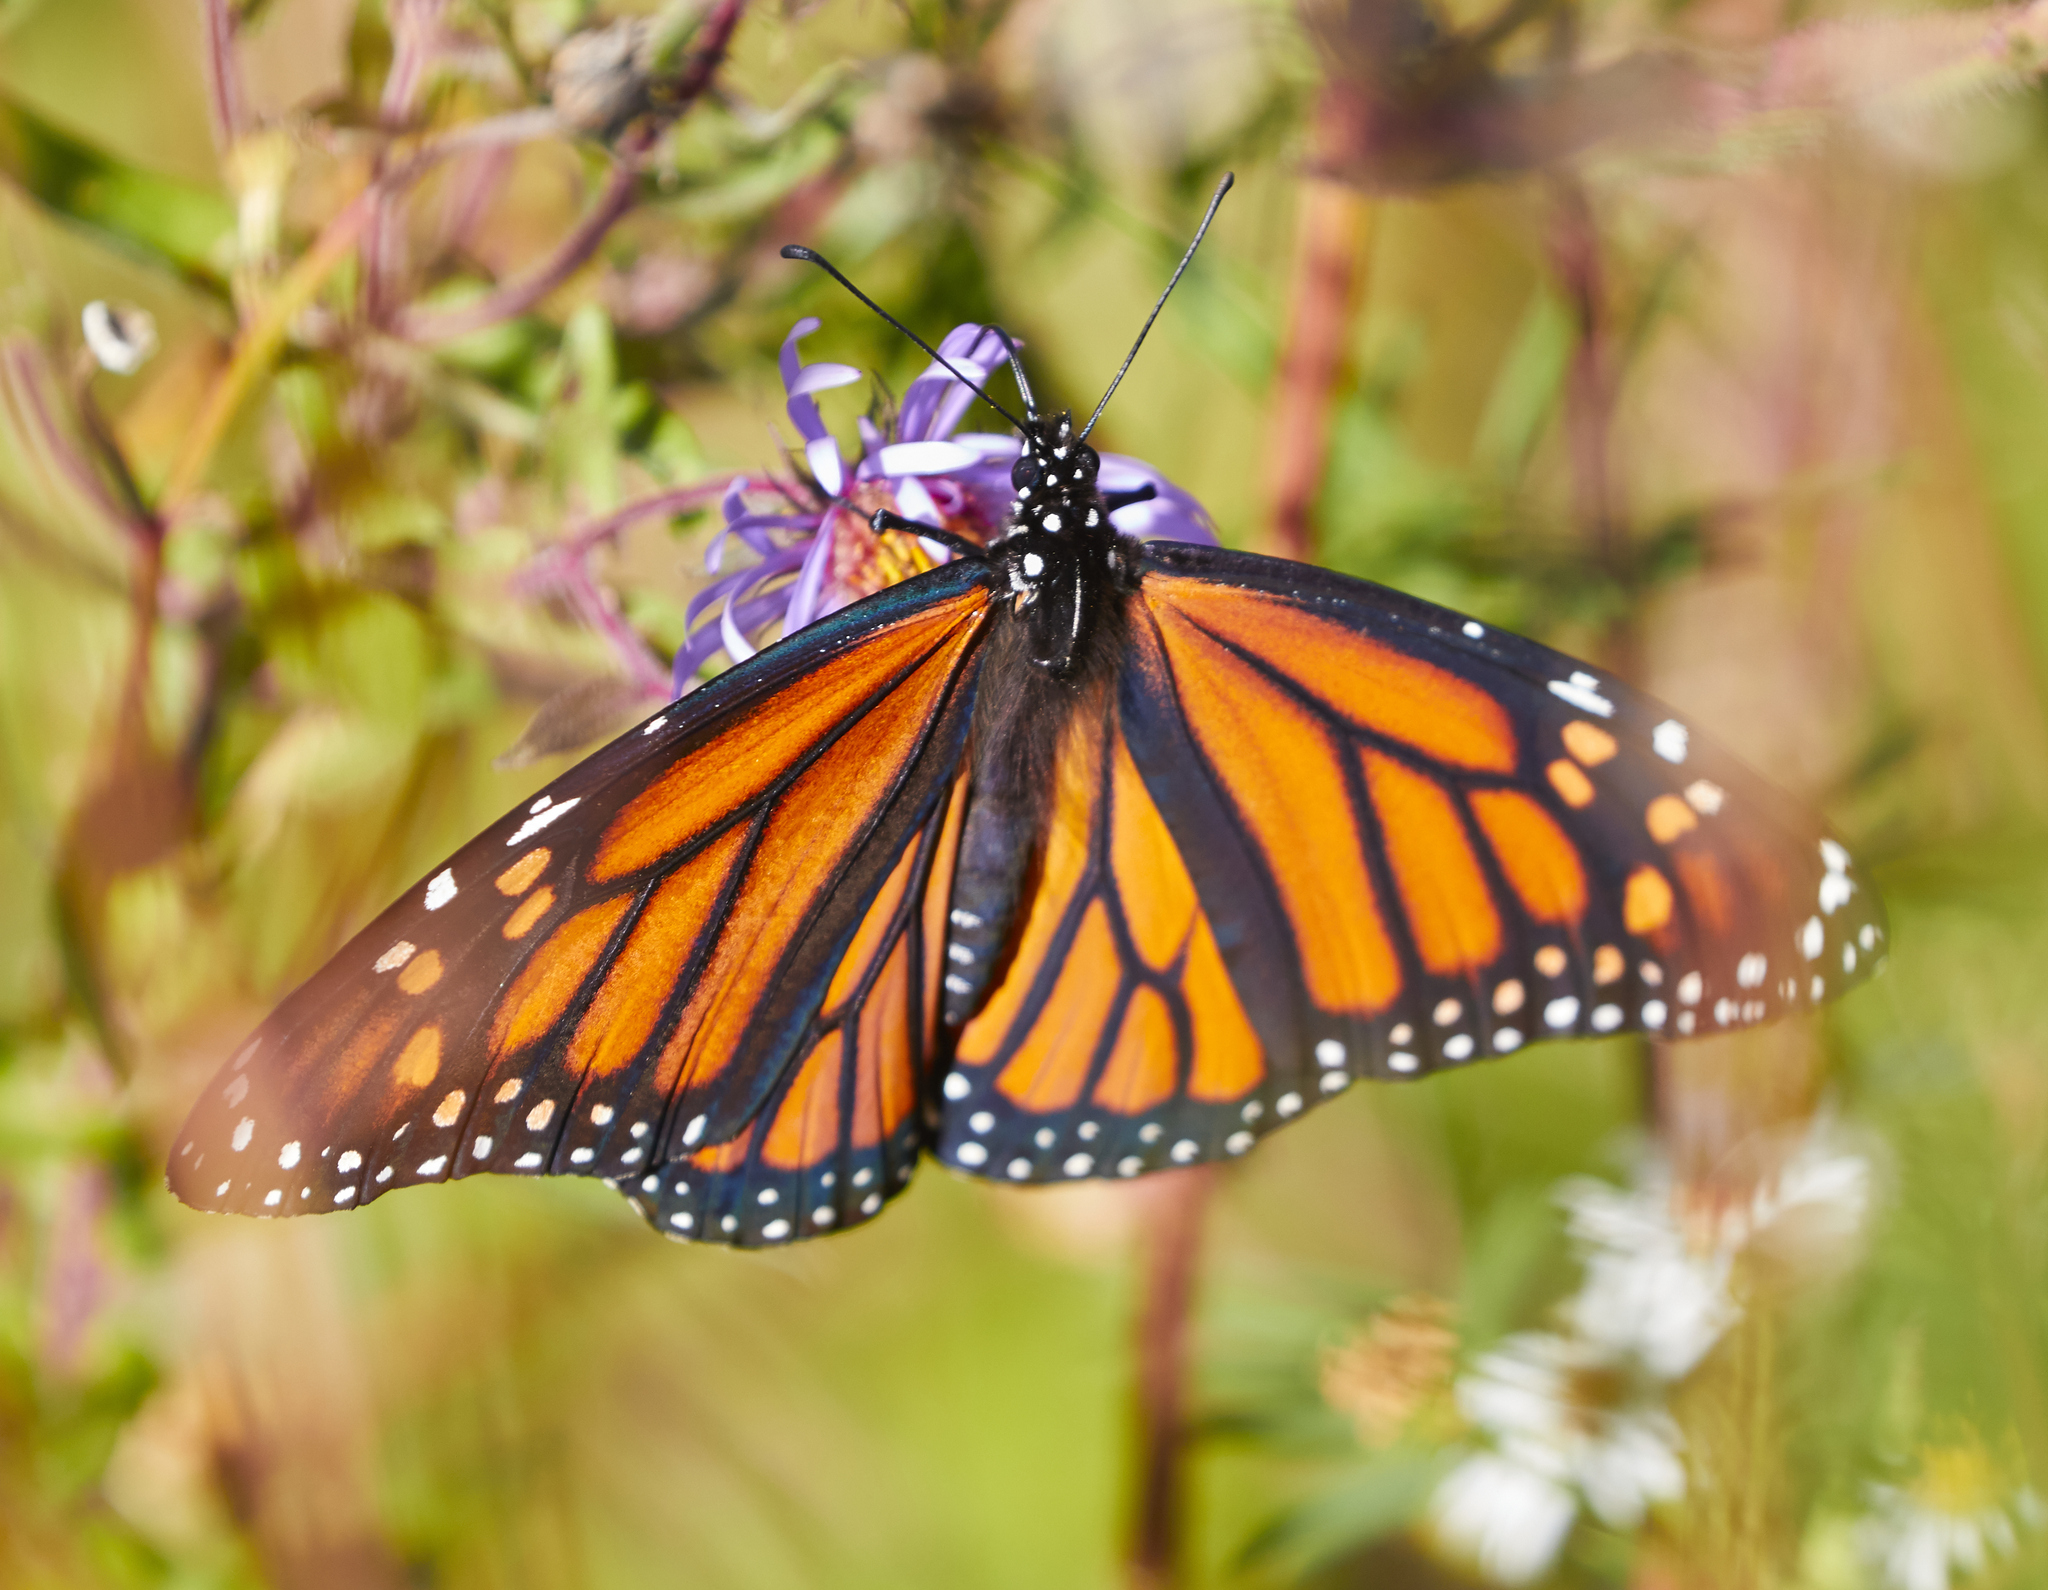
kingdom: Animalia
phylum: Arthropoda
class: Insecta
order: Lepidoptera
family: Nymphalidae
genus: Danaus
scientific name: Danaus plexippus
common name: Monarch
